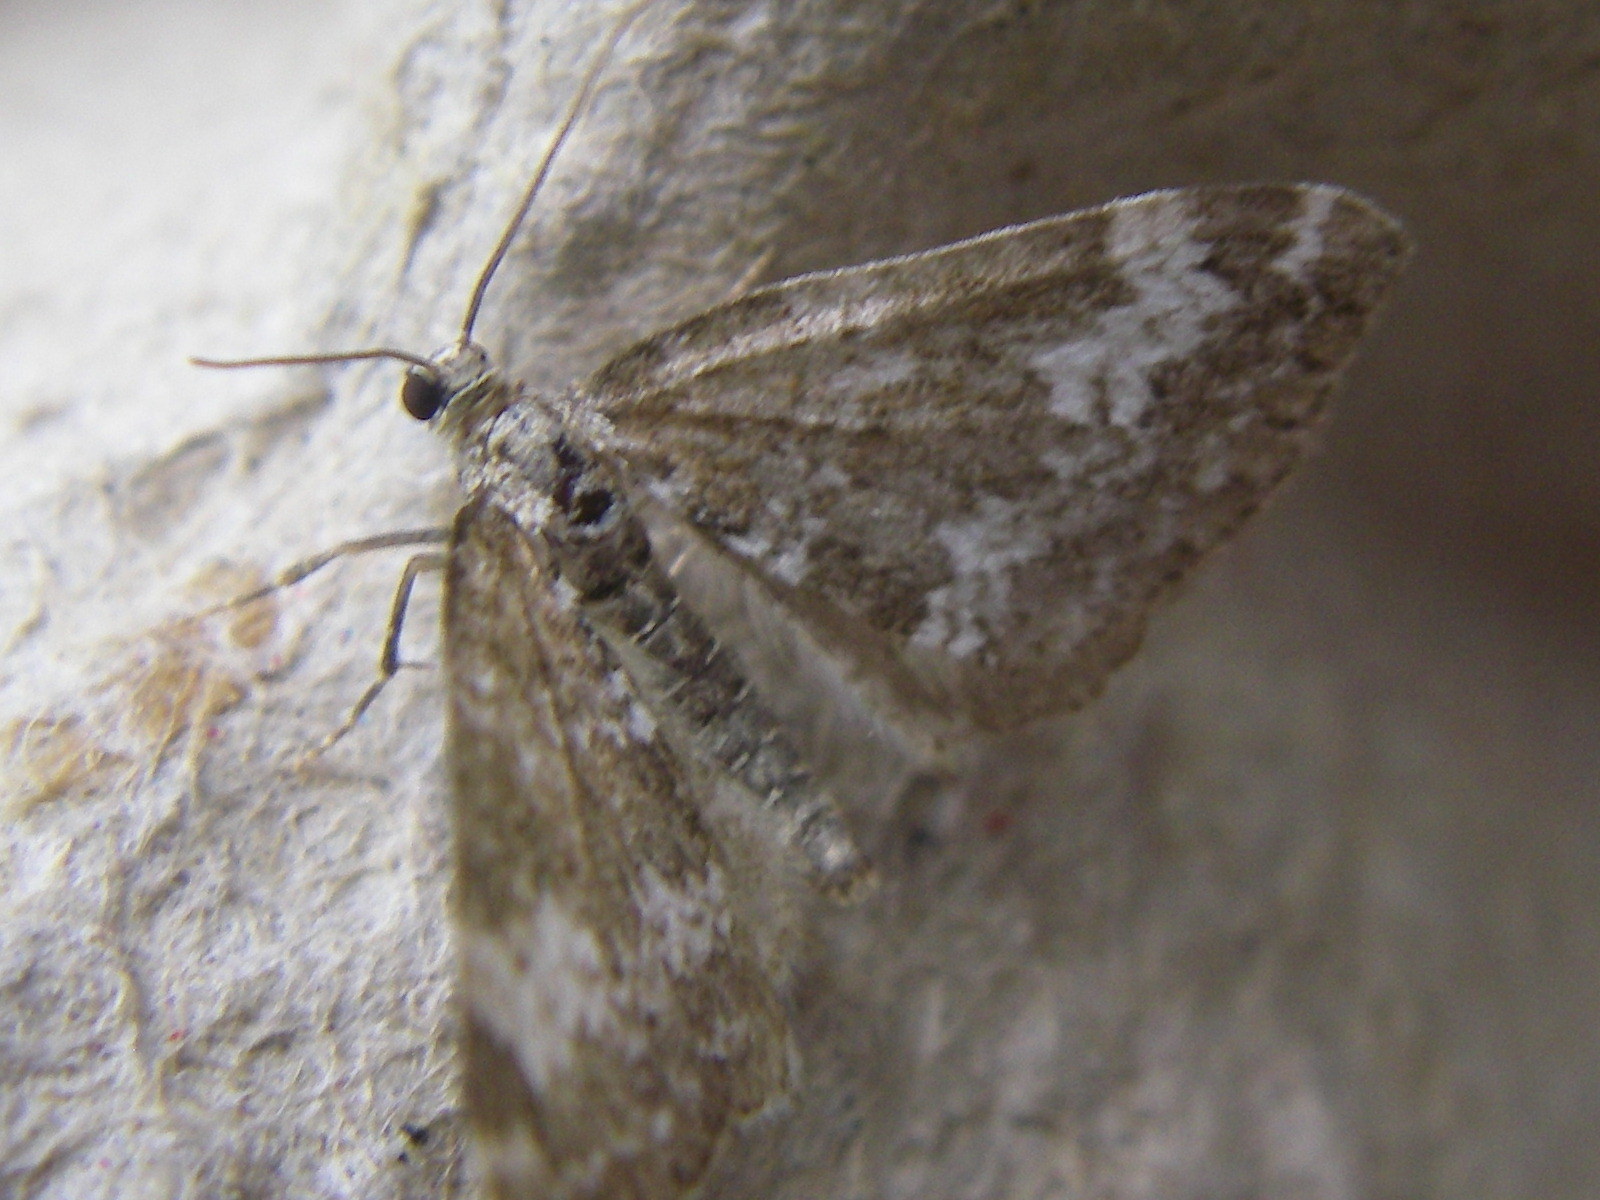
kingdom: Animalia
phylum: Arthropoda
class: Insecta
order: Lepidoptera
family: Geometridae
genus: Perizoma
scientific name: Perizoma alchemillata
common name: Small rivulet
